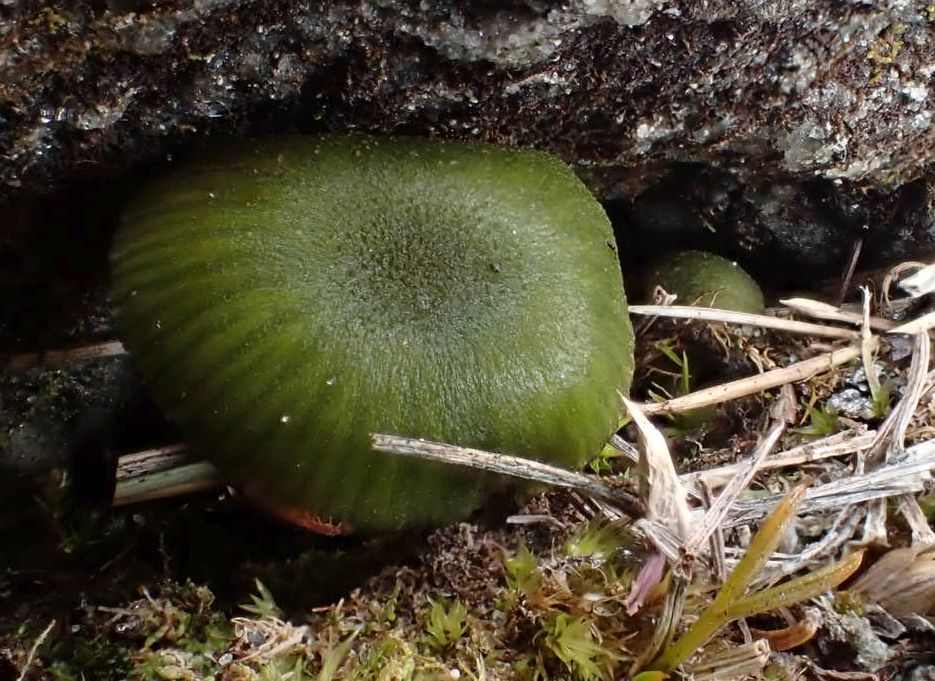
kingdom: Fungi
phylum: Basidiomycota
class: Agaricomycetes
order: Agaricales
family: Entolomataceae
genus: Entoloma
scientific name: Entoloma viridomarginatum
